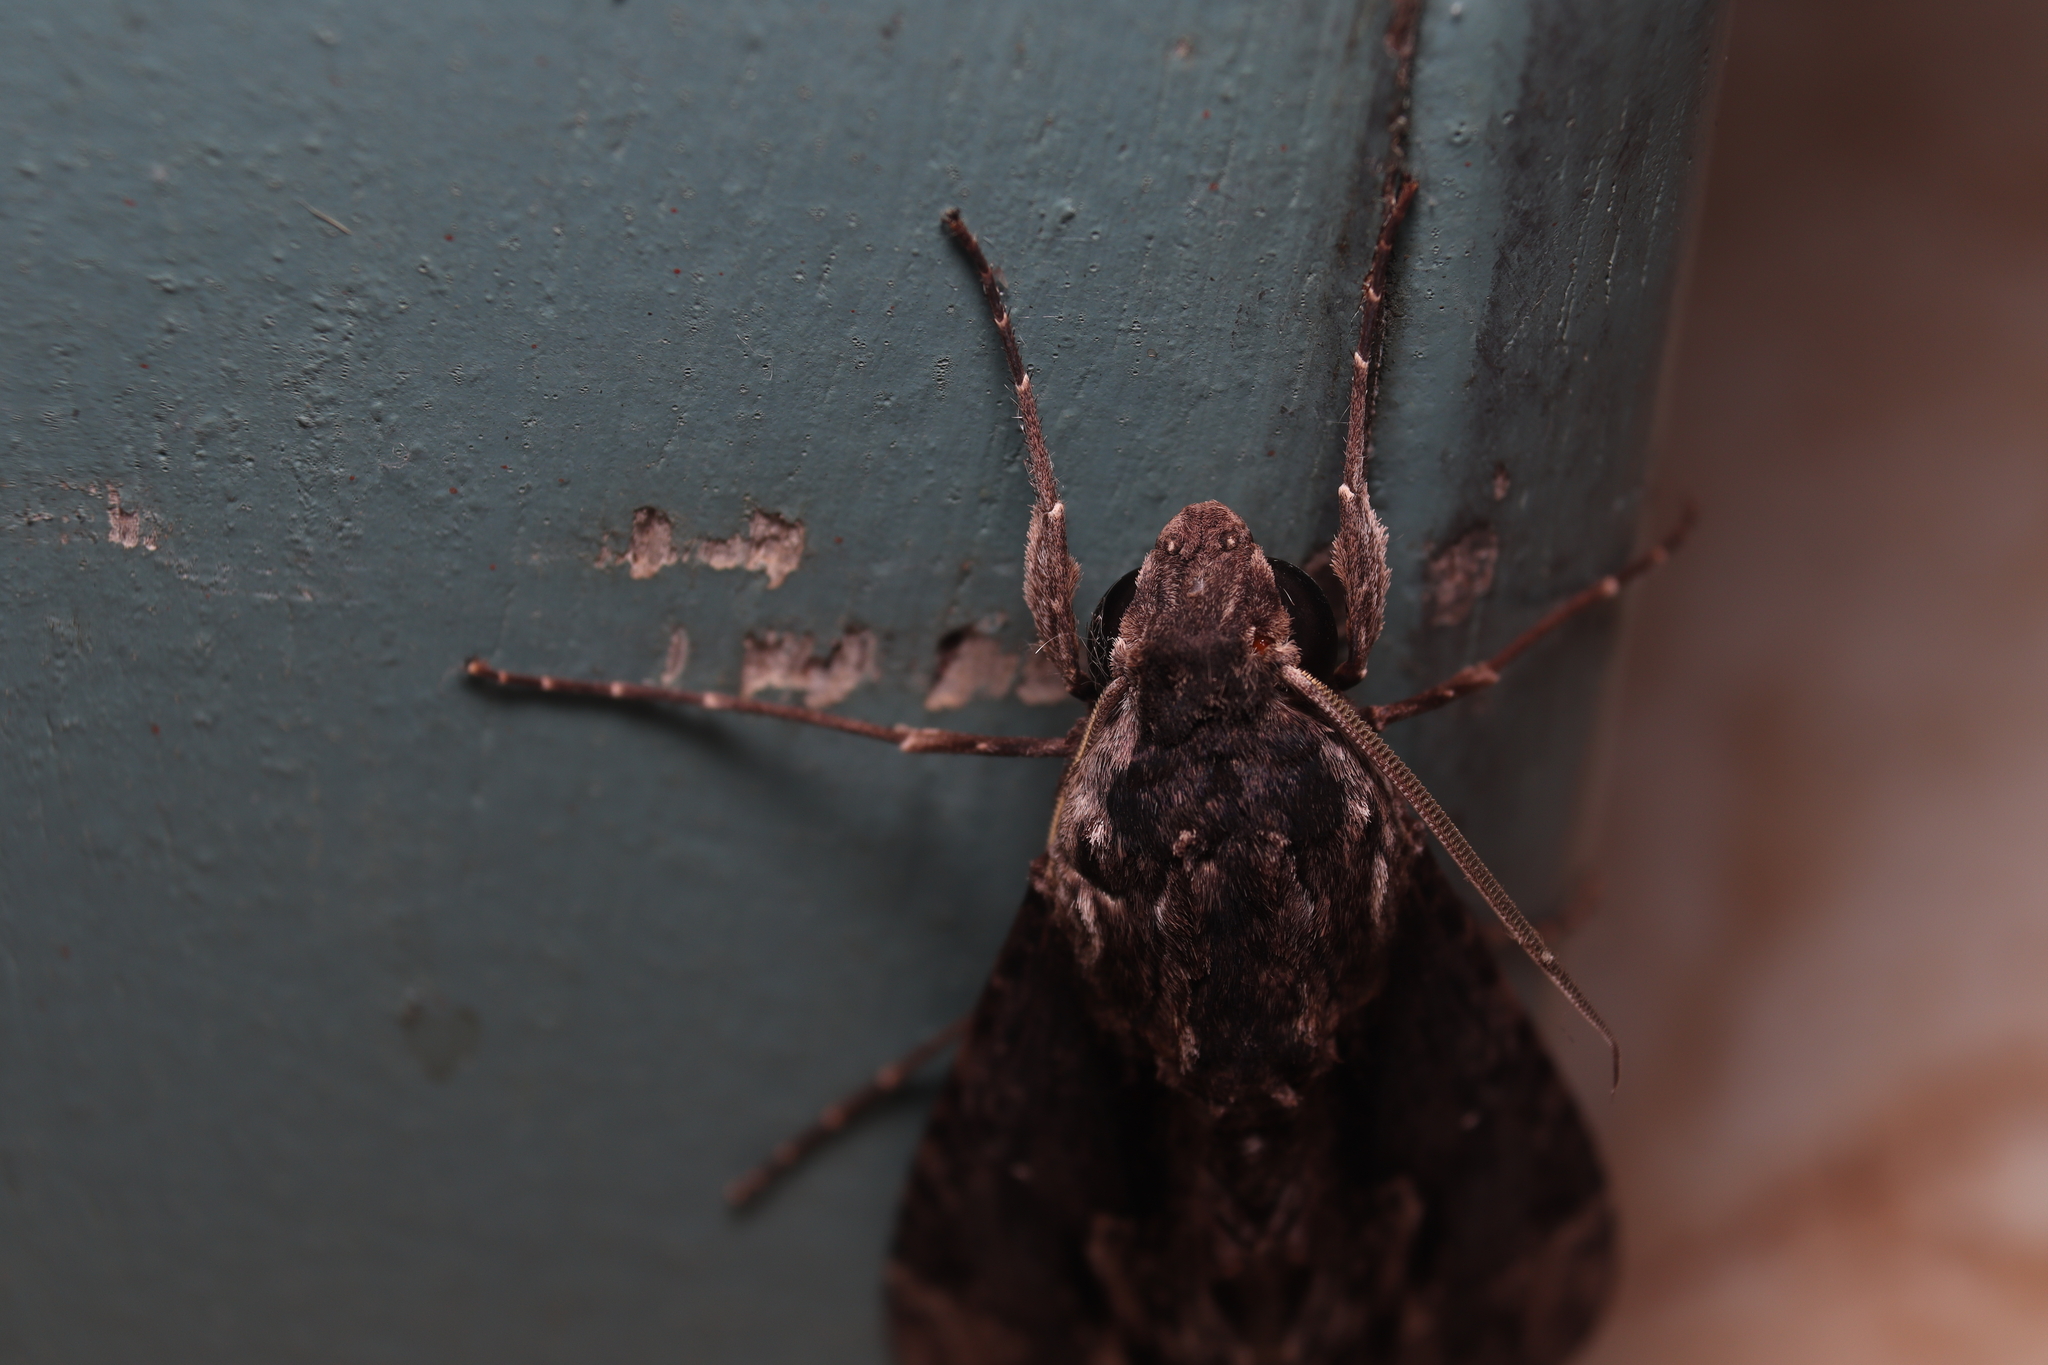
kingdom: Animalia
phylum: Arthropoda
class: Insecta
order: Lepidoptera
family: Sphingidae
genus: Erinnyis
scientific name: Erinnyis oenotrus
